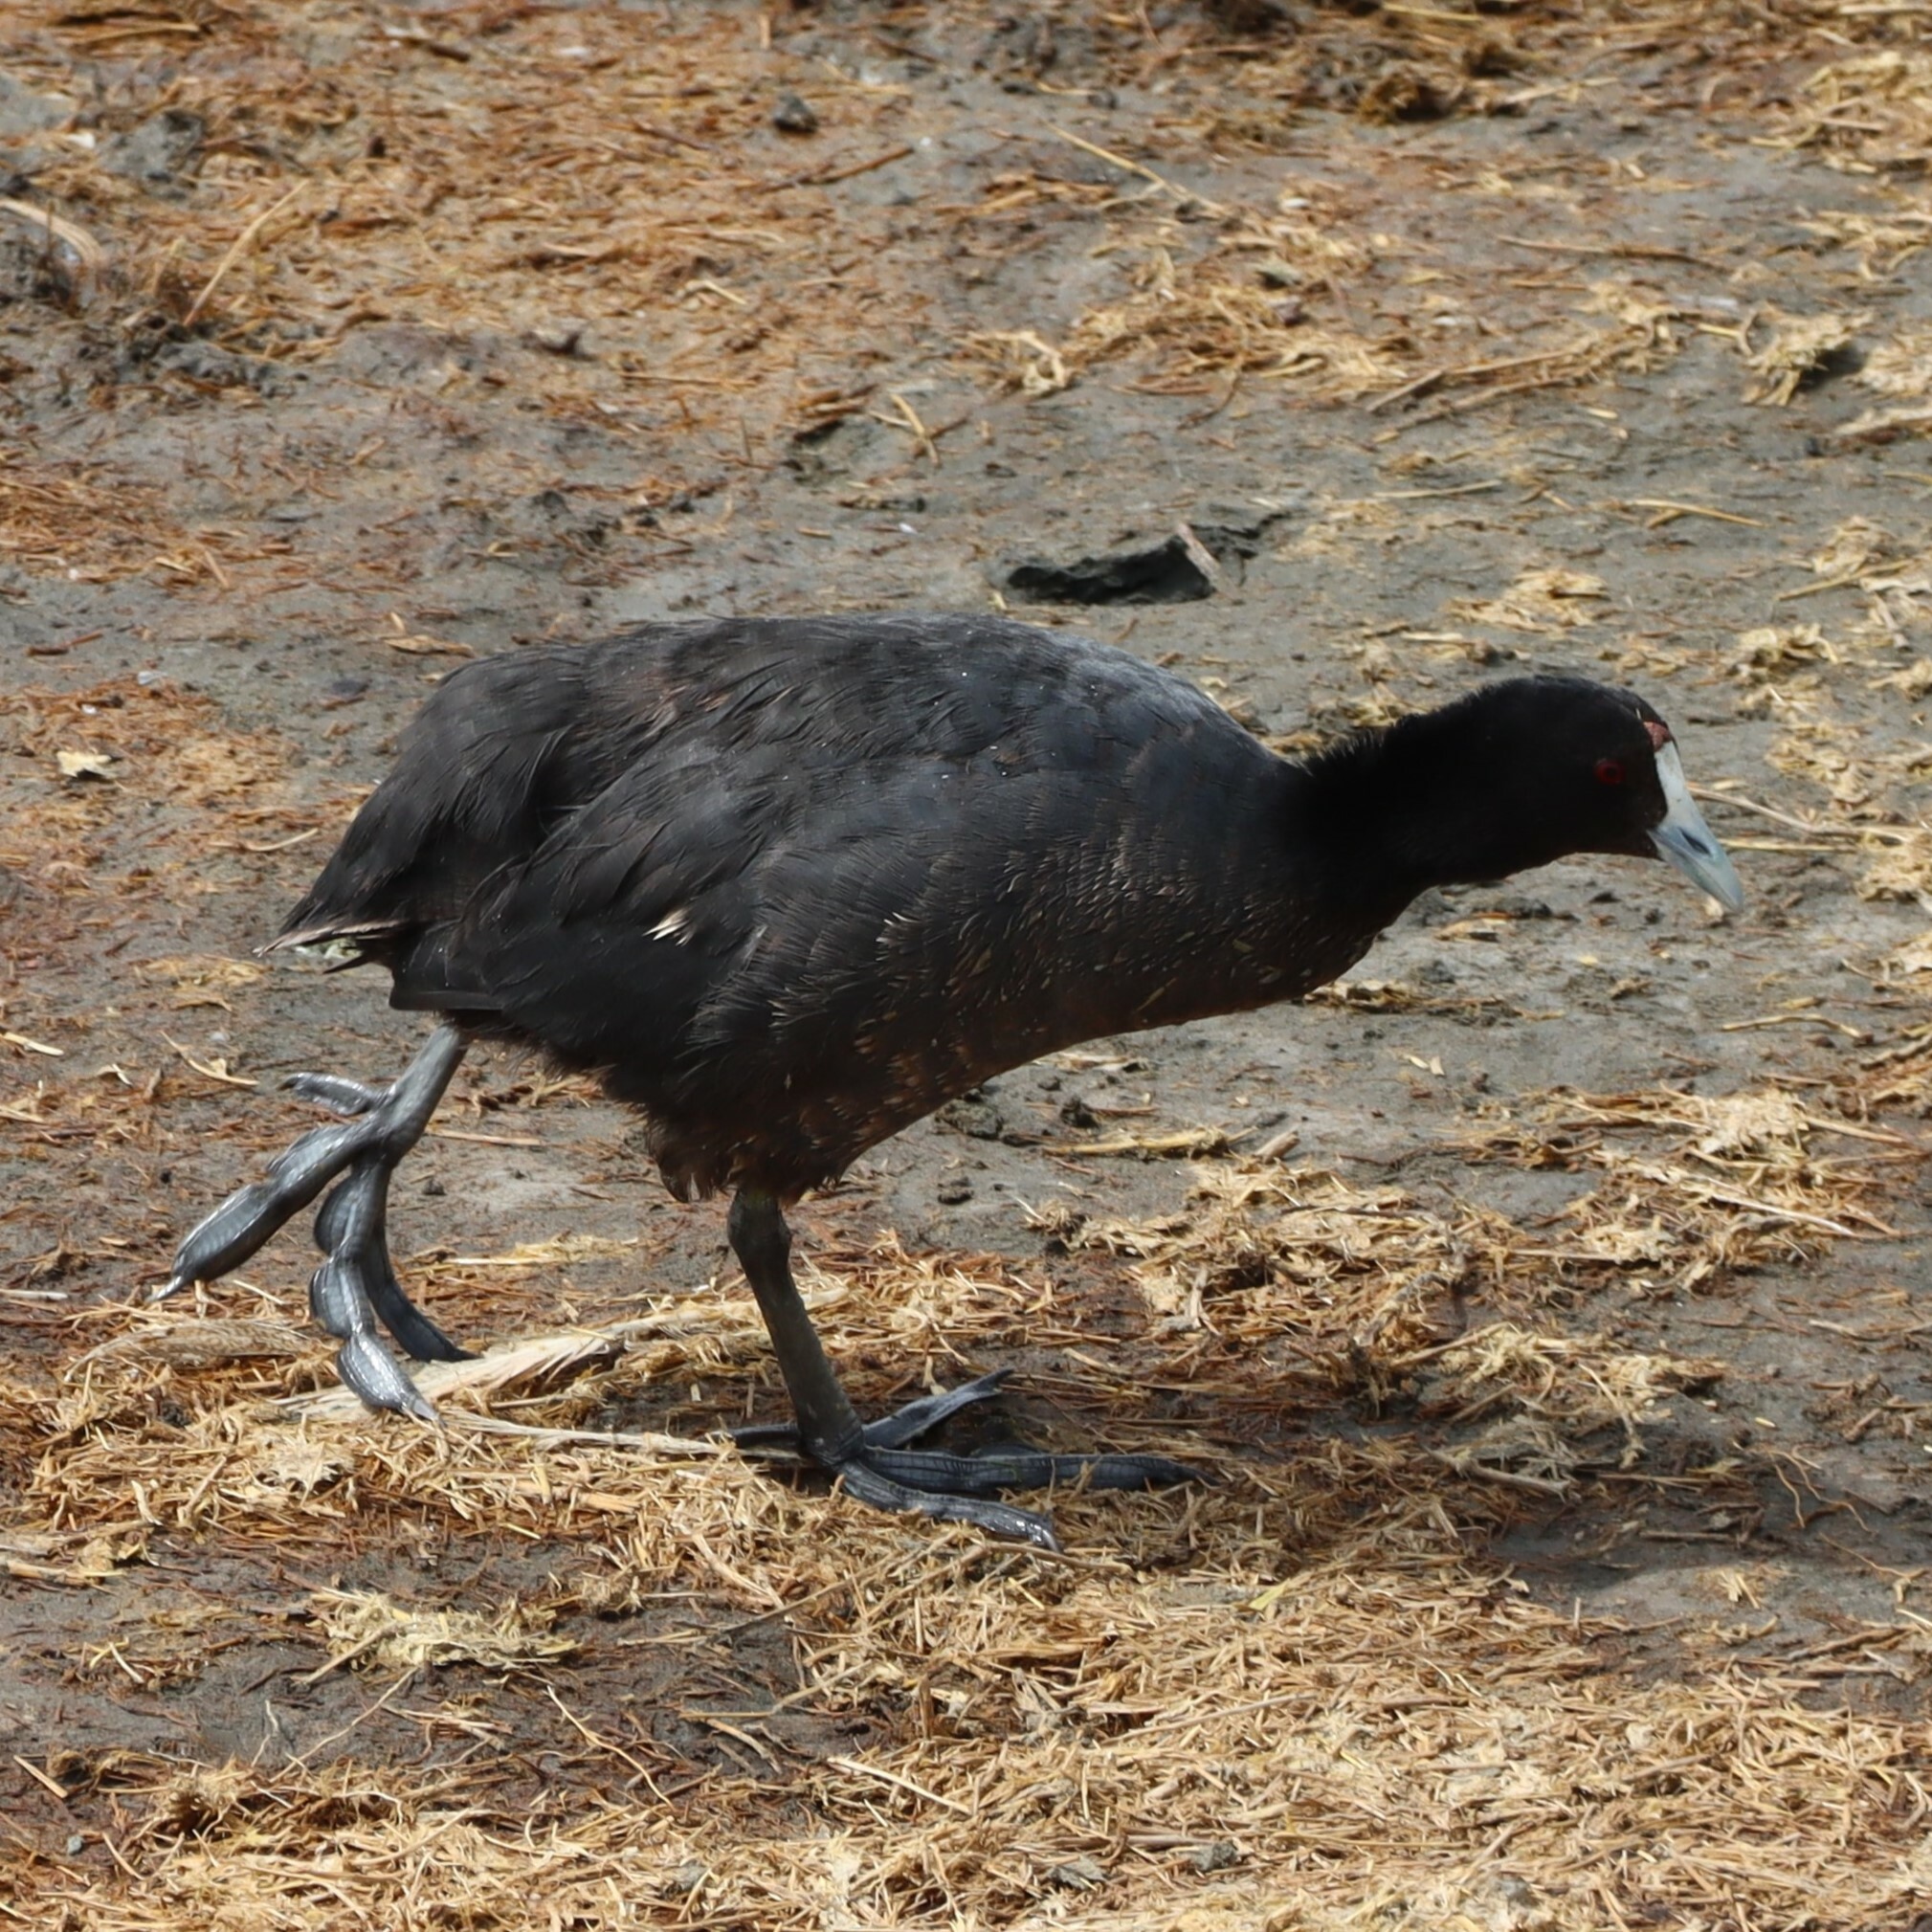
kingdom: Animalia
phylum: Chordata
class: Aves
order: Gruiformes
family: Rallidae
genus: Fulica
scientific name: Fulica cristata
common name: Red-knobbed coot
